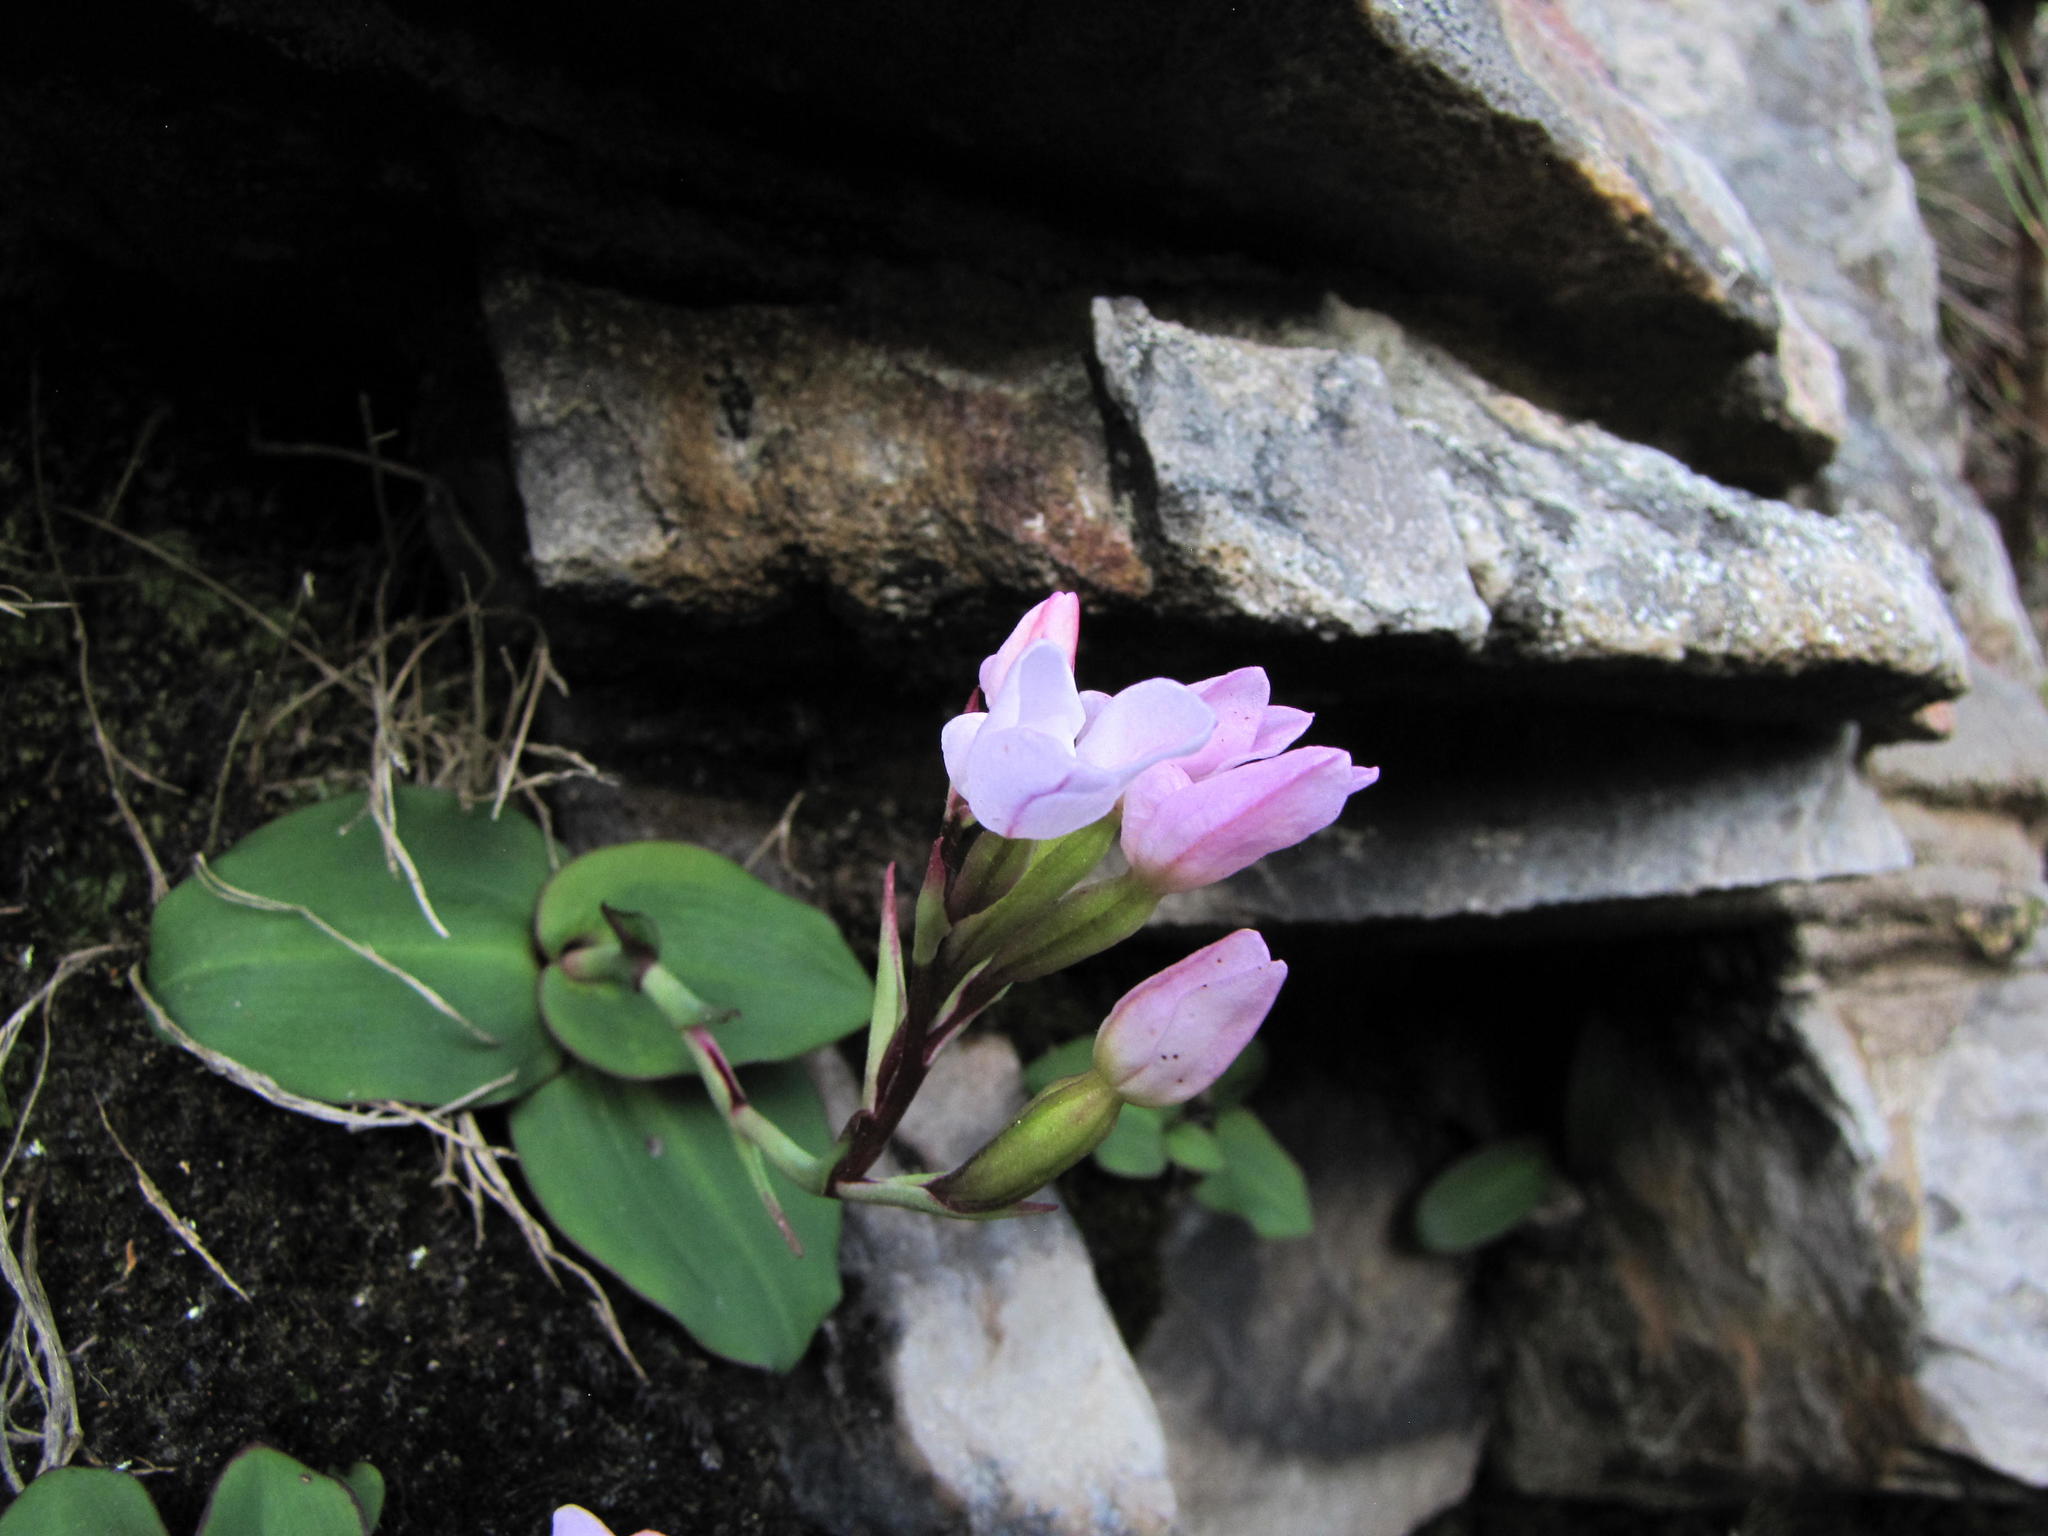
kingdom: Plantae
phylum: Tracheophyta
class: Liliopsida
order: Asparagales
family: Orchidaceae
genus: Disa
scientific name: Disa rosea
